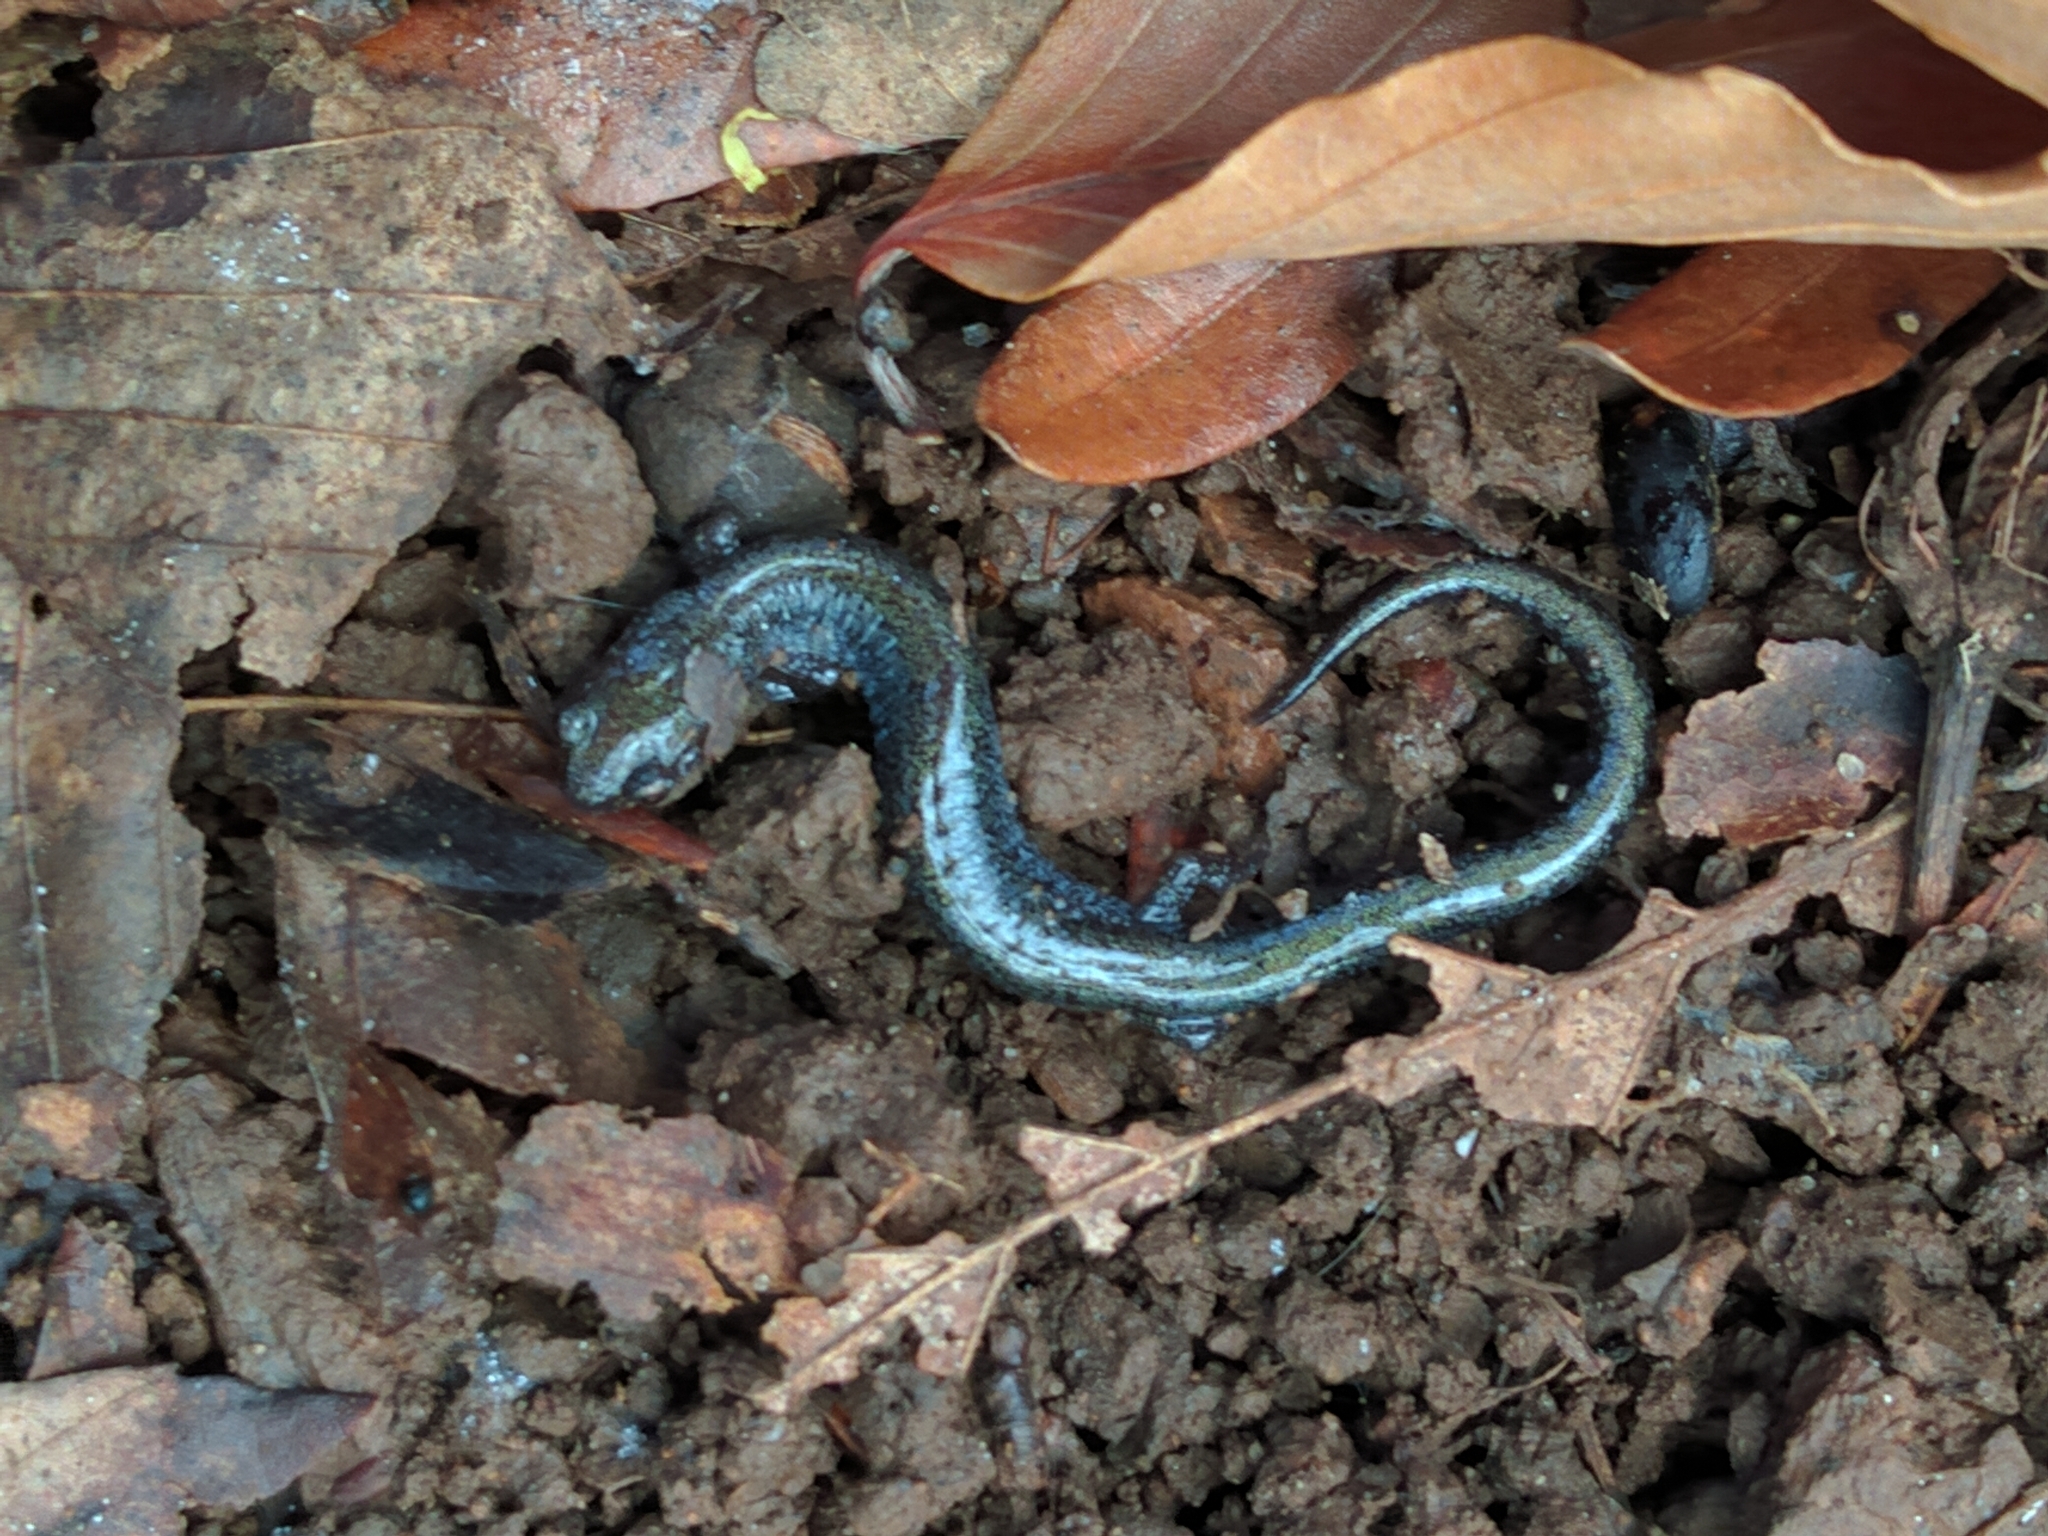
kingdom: Animalia
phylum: Chordata
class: Amphibia
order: Caudata
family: Plethodontidae
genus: Plethodon
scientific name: Plethodon cinereus
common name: Redback salamander
